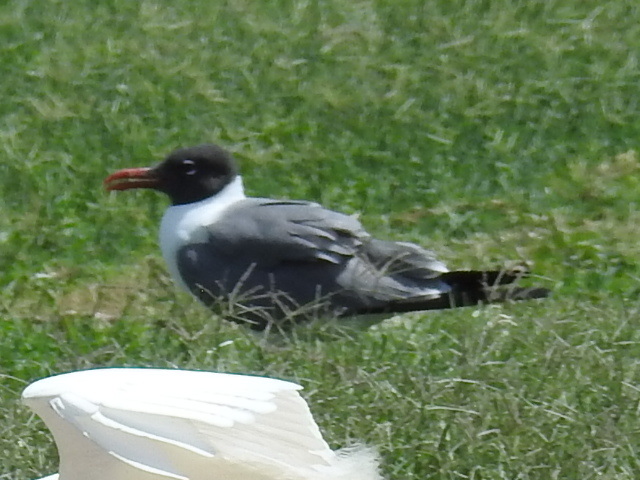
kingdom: Animalia
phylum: Chordata
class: Aves
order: Charadriiformes
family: Laridae
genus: Leucophaeus
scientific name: Leucophaeus atricilla
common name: Laughing gull
